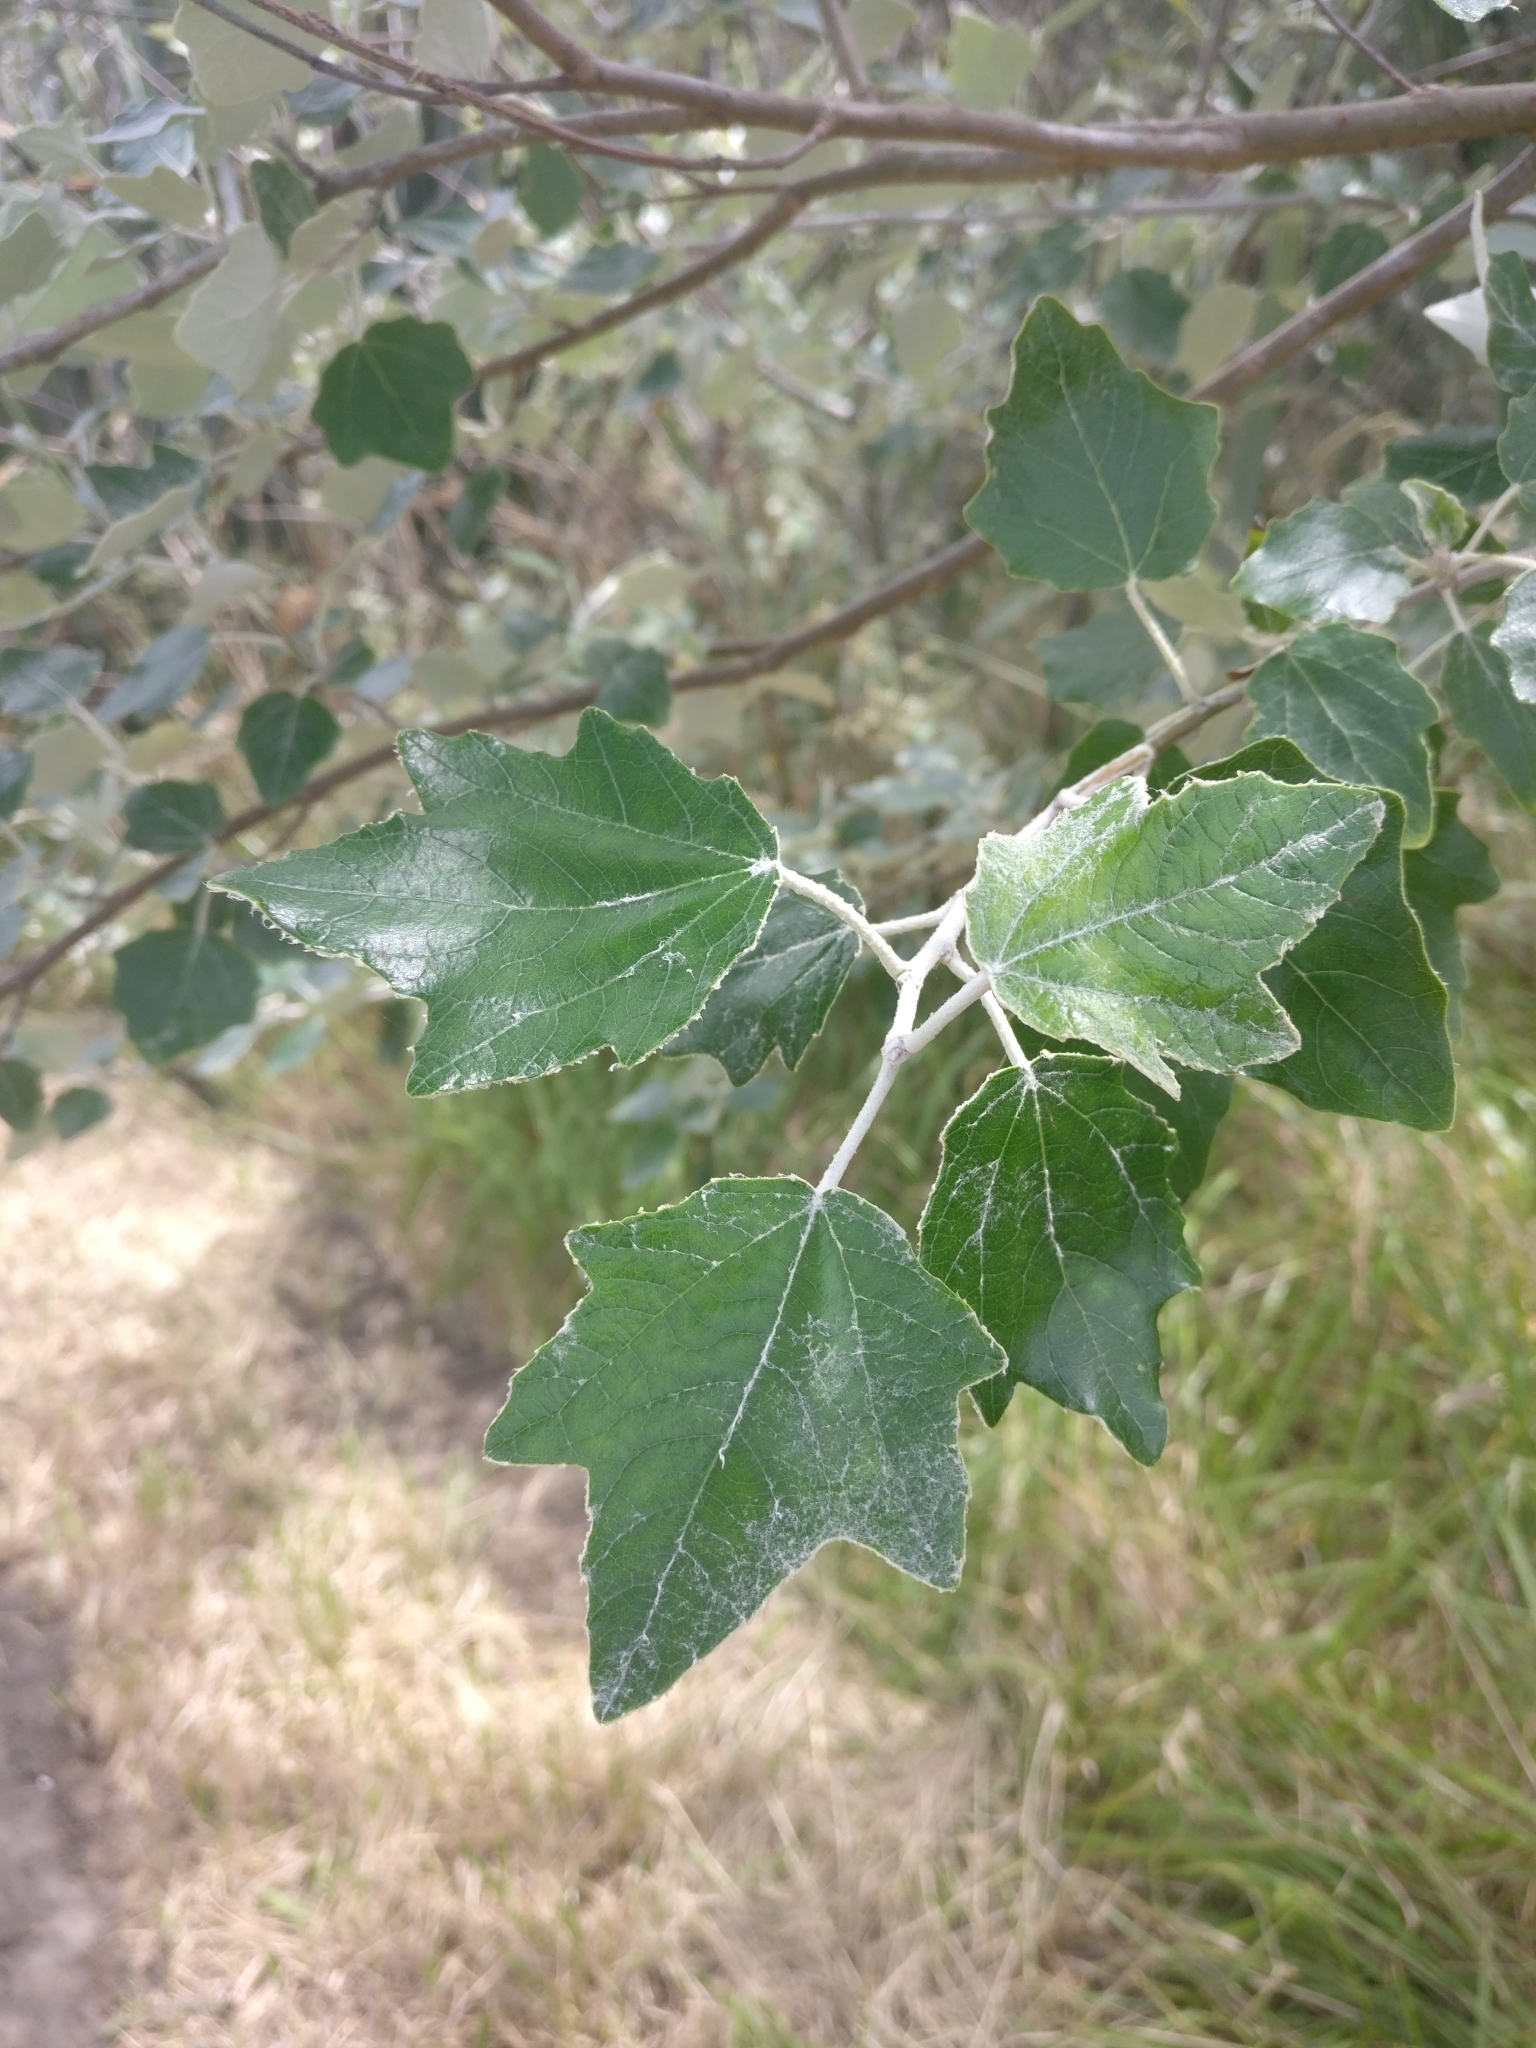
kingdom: Plantae
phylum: Tracheophyta
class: Magnoliopsida
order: Malpighiales
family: Salicaceae
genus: Populus
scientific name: Populus alba
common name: White poplar
